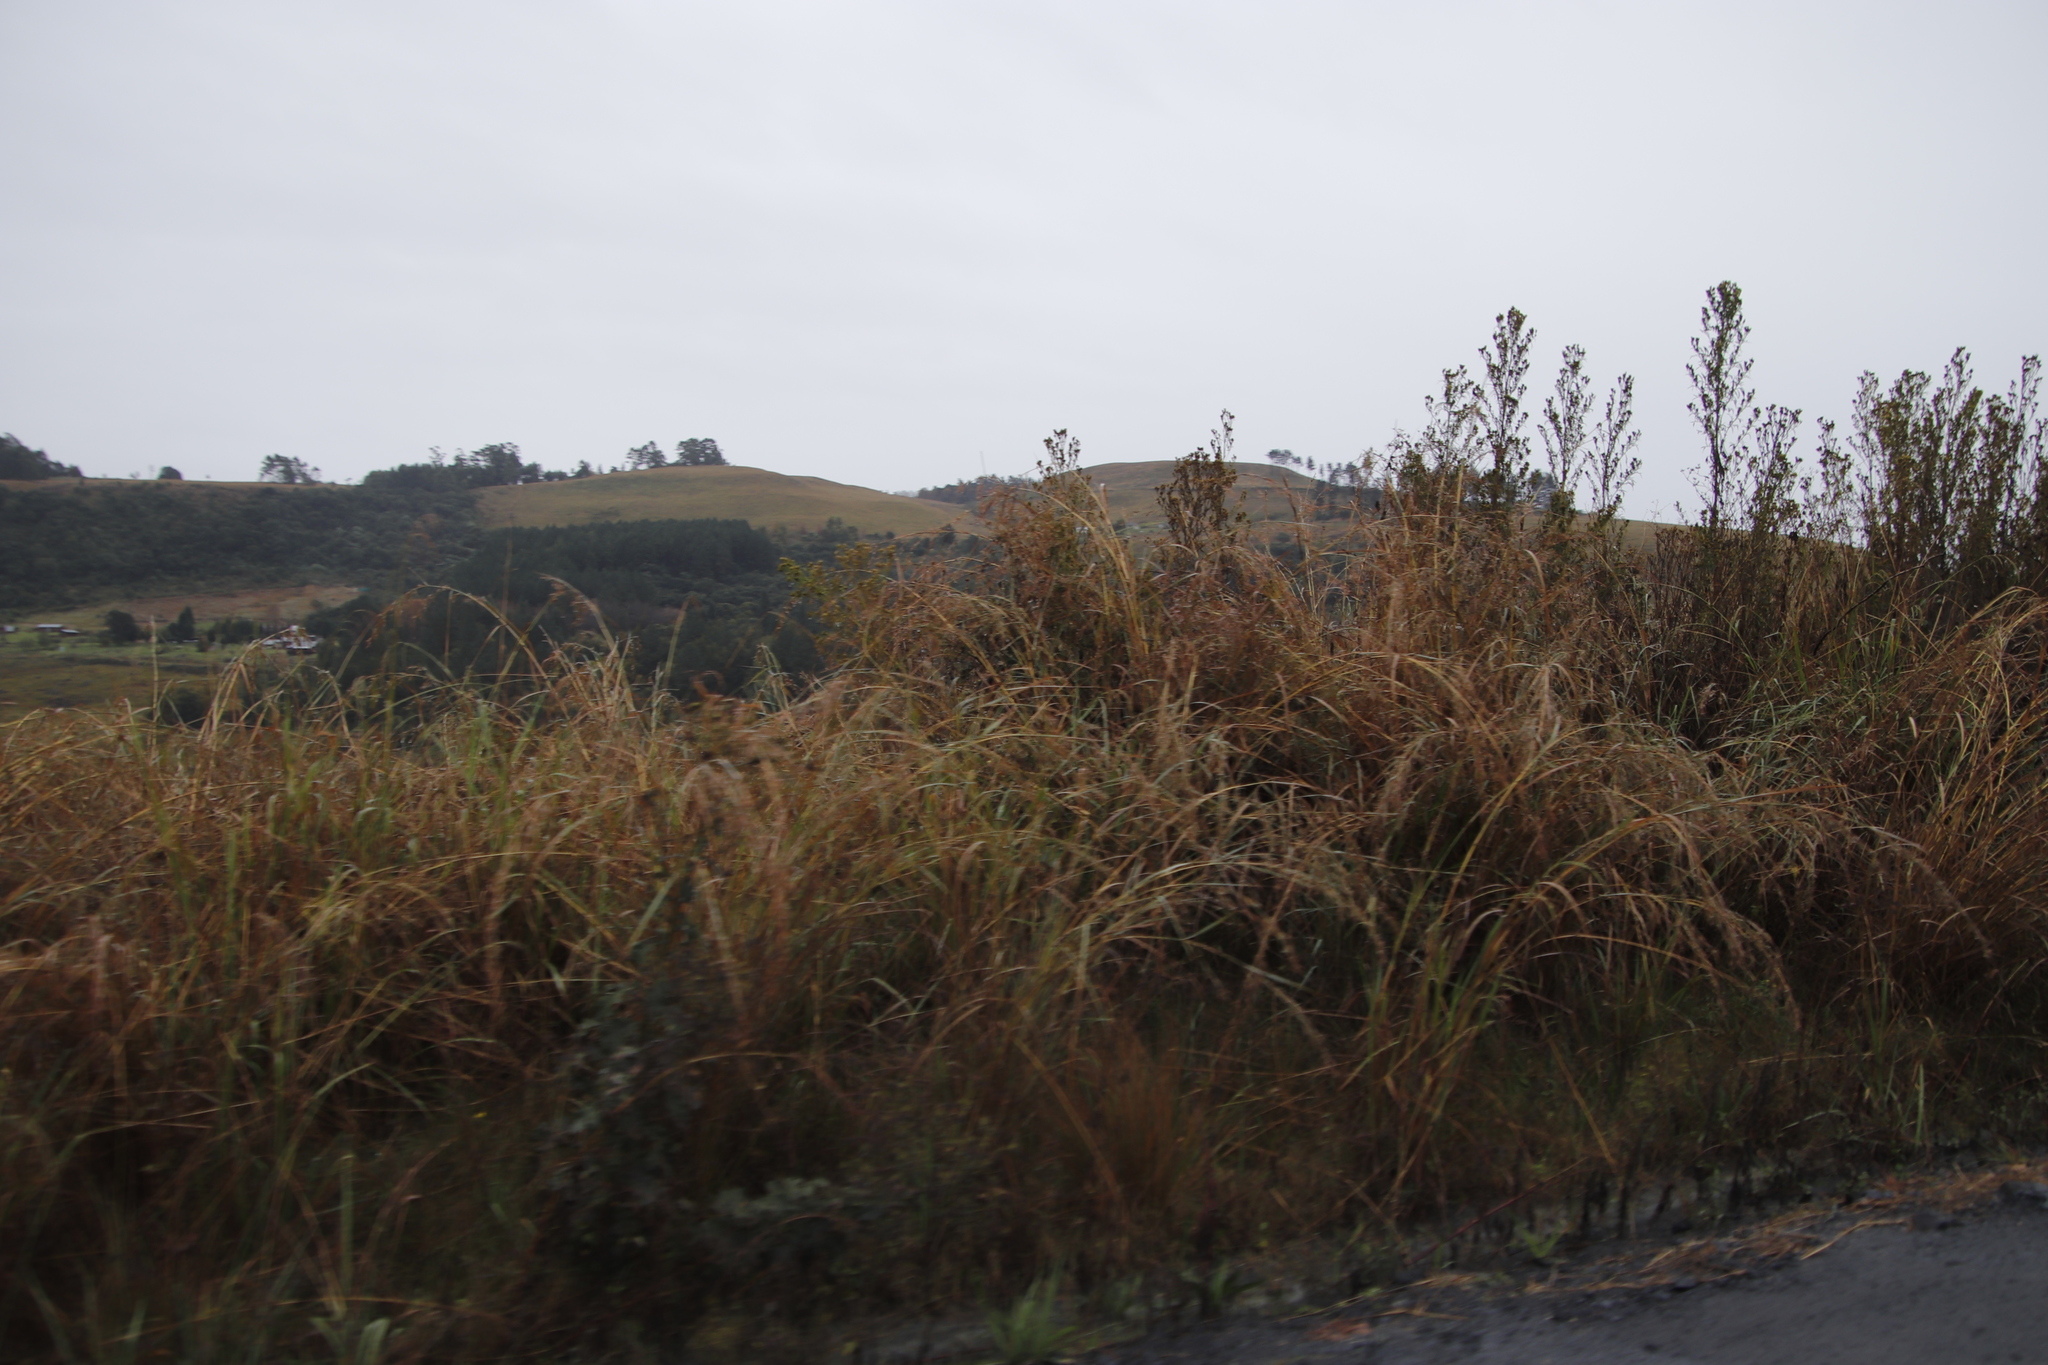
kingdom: Plantae
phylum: Tracheophyta
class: Magnoliopsida
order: Asterales
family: Asteraceae
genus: Tagetes
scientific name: Tagetes minuta
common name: Muster john henry
